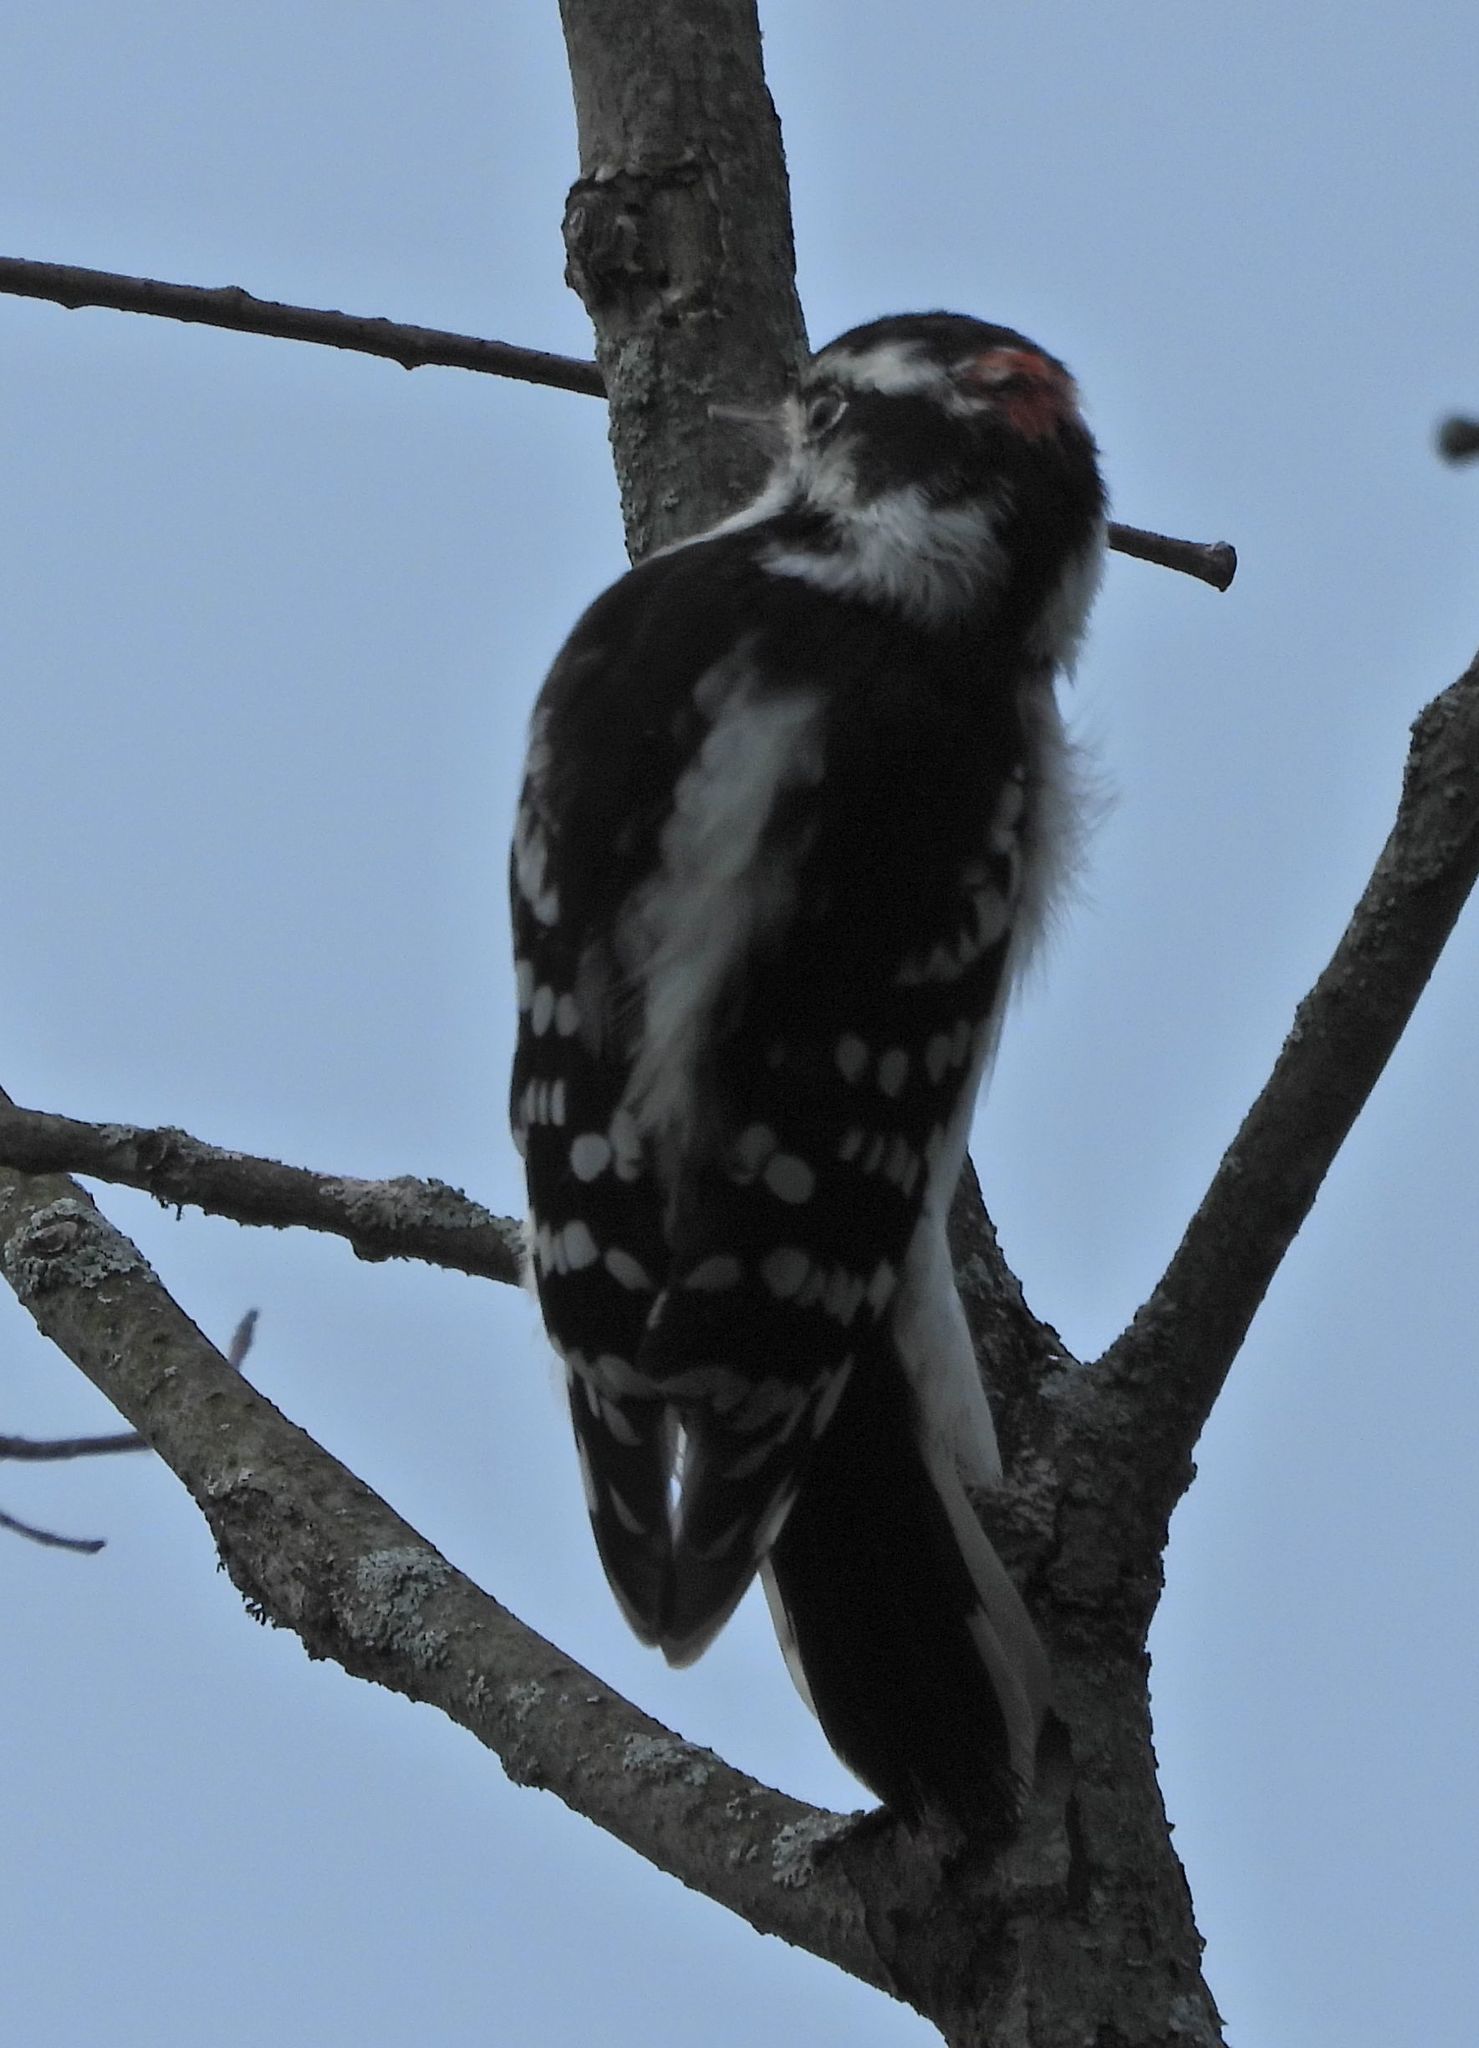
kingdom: Animalia
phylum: Chordata
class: Aves
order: Piciformes
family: Picidae
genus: Dryobates
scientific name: Dryobates pubescens
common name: Downy woodpecker
